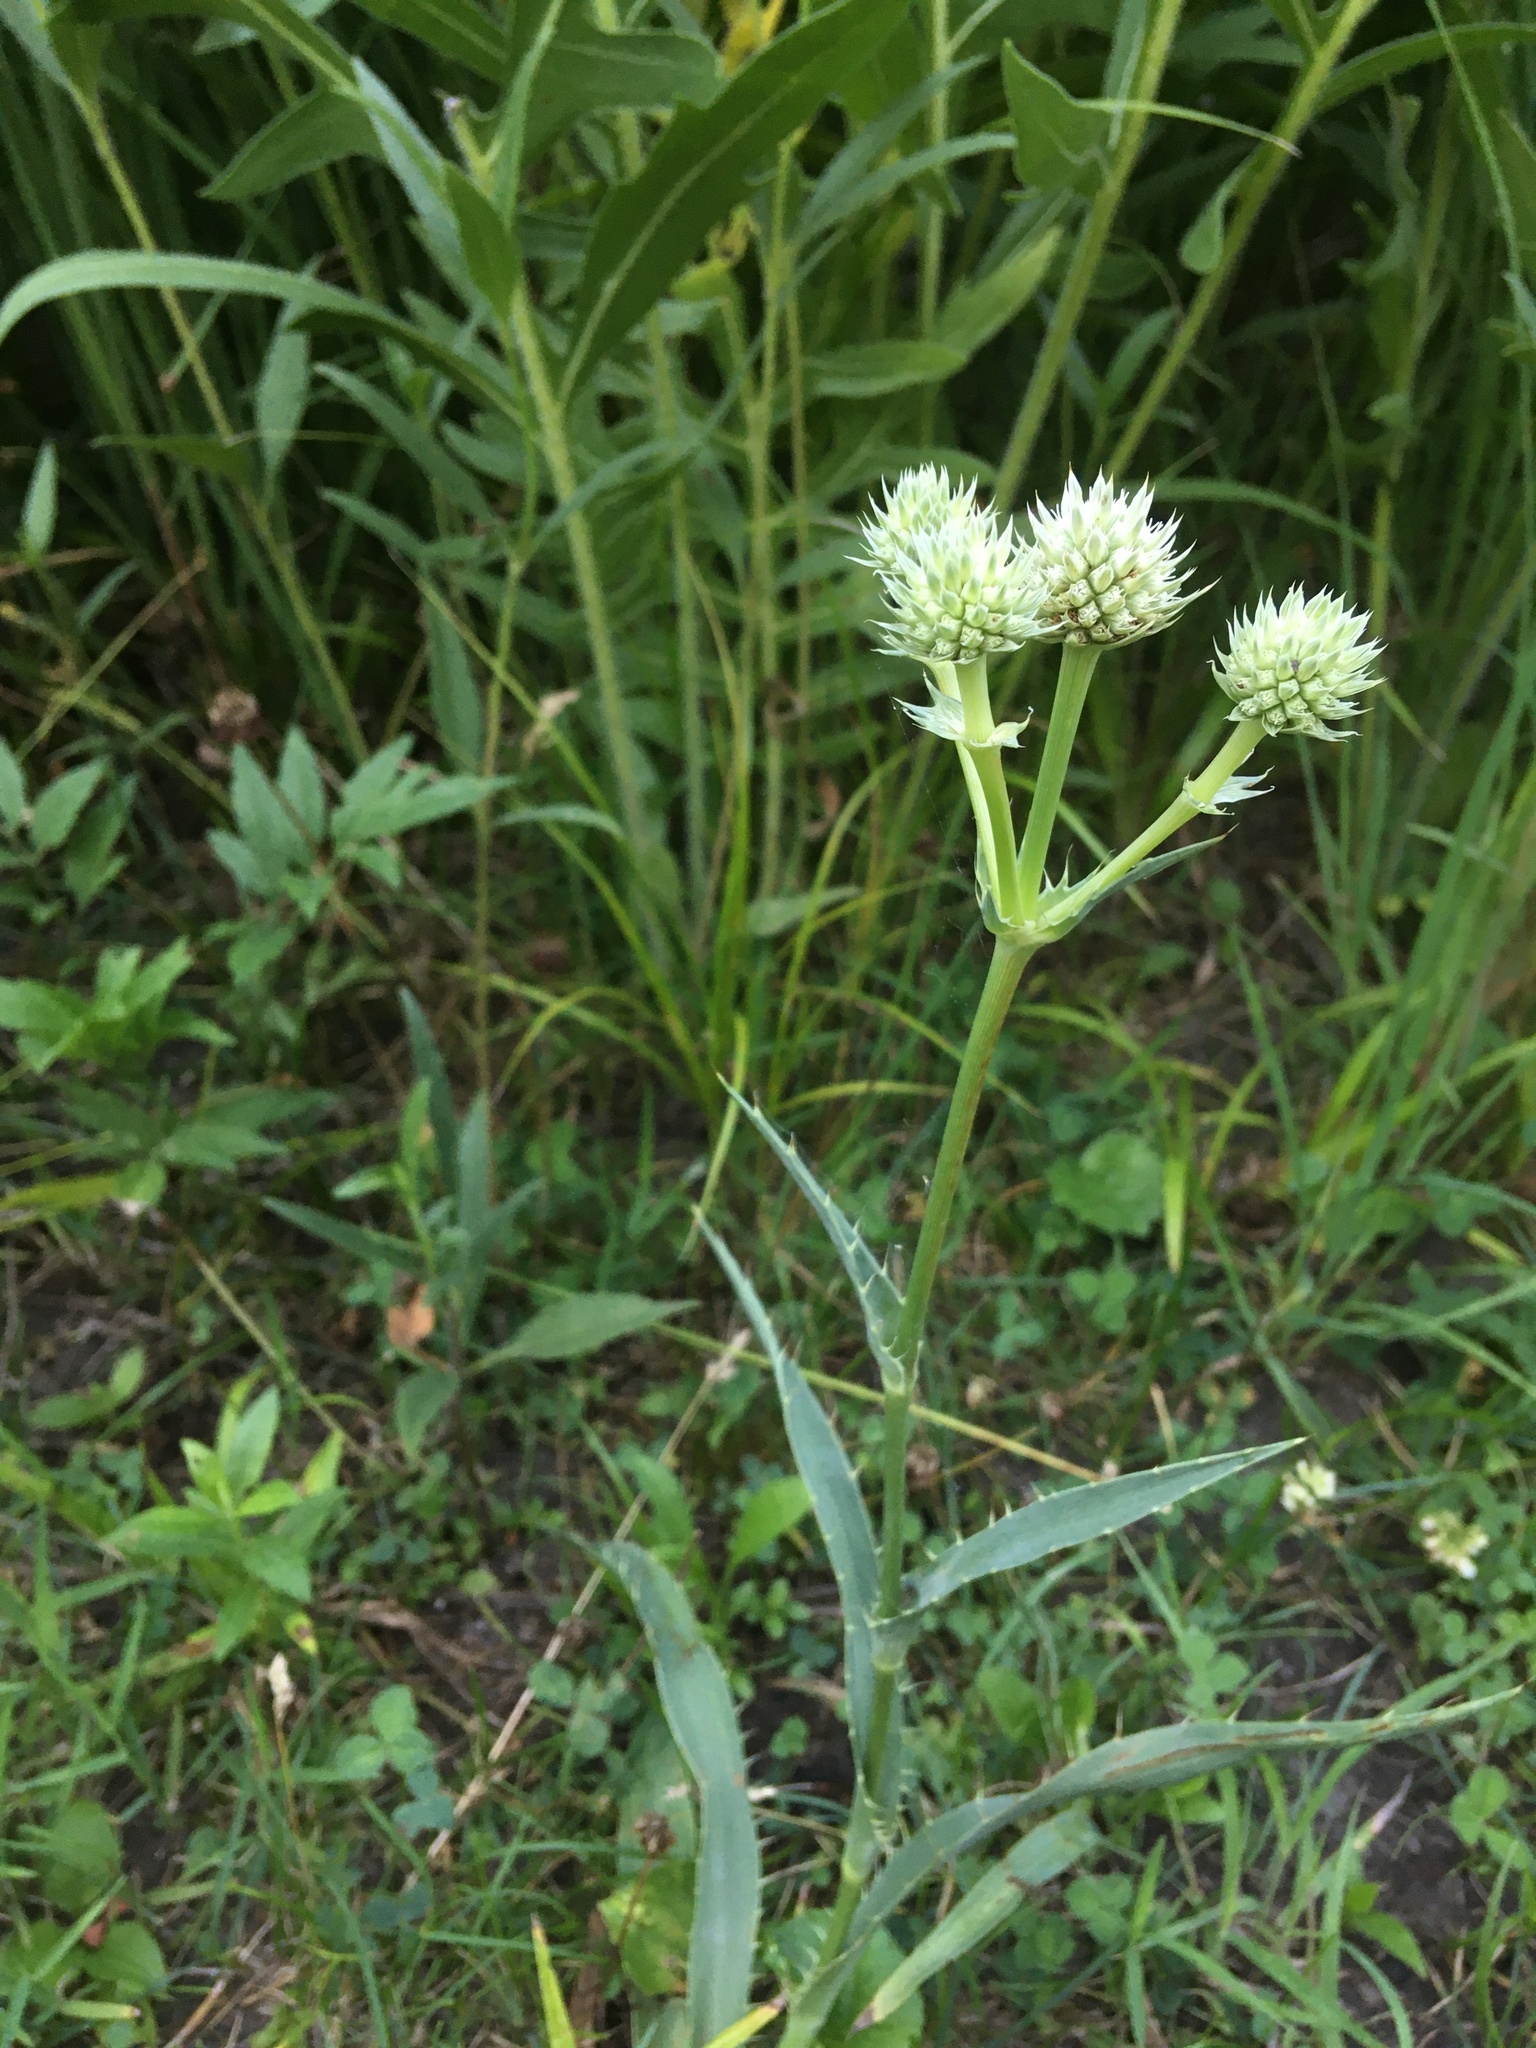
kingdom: Plantae
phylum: Tracheophyta
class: Magnoliopsida
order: Apiales
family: Apiaceae
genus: Eryngium
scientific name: Eryngium yuccifolium
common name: Button eryngo
